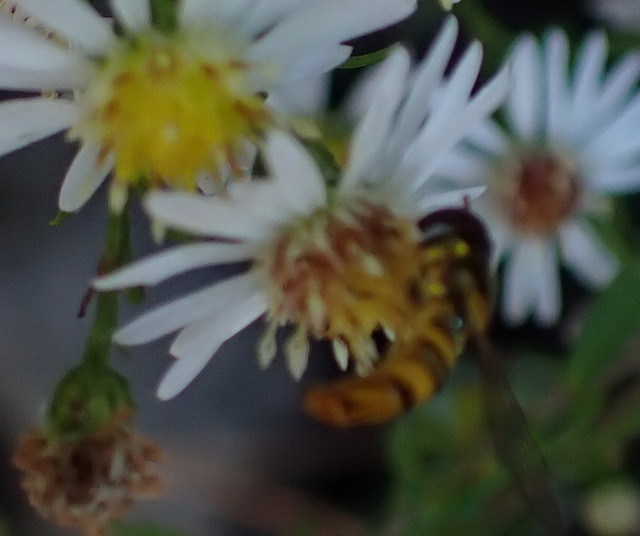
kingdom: Animalia
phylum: Arthropoda
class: Insecta
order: Diptera
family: Syrphidae
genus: Allograpta
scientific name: Allograpta
